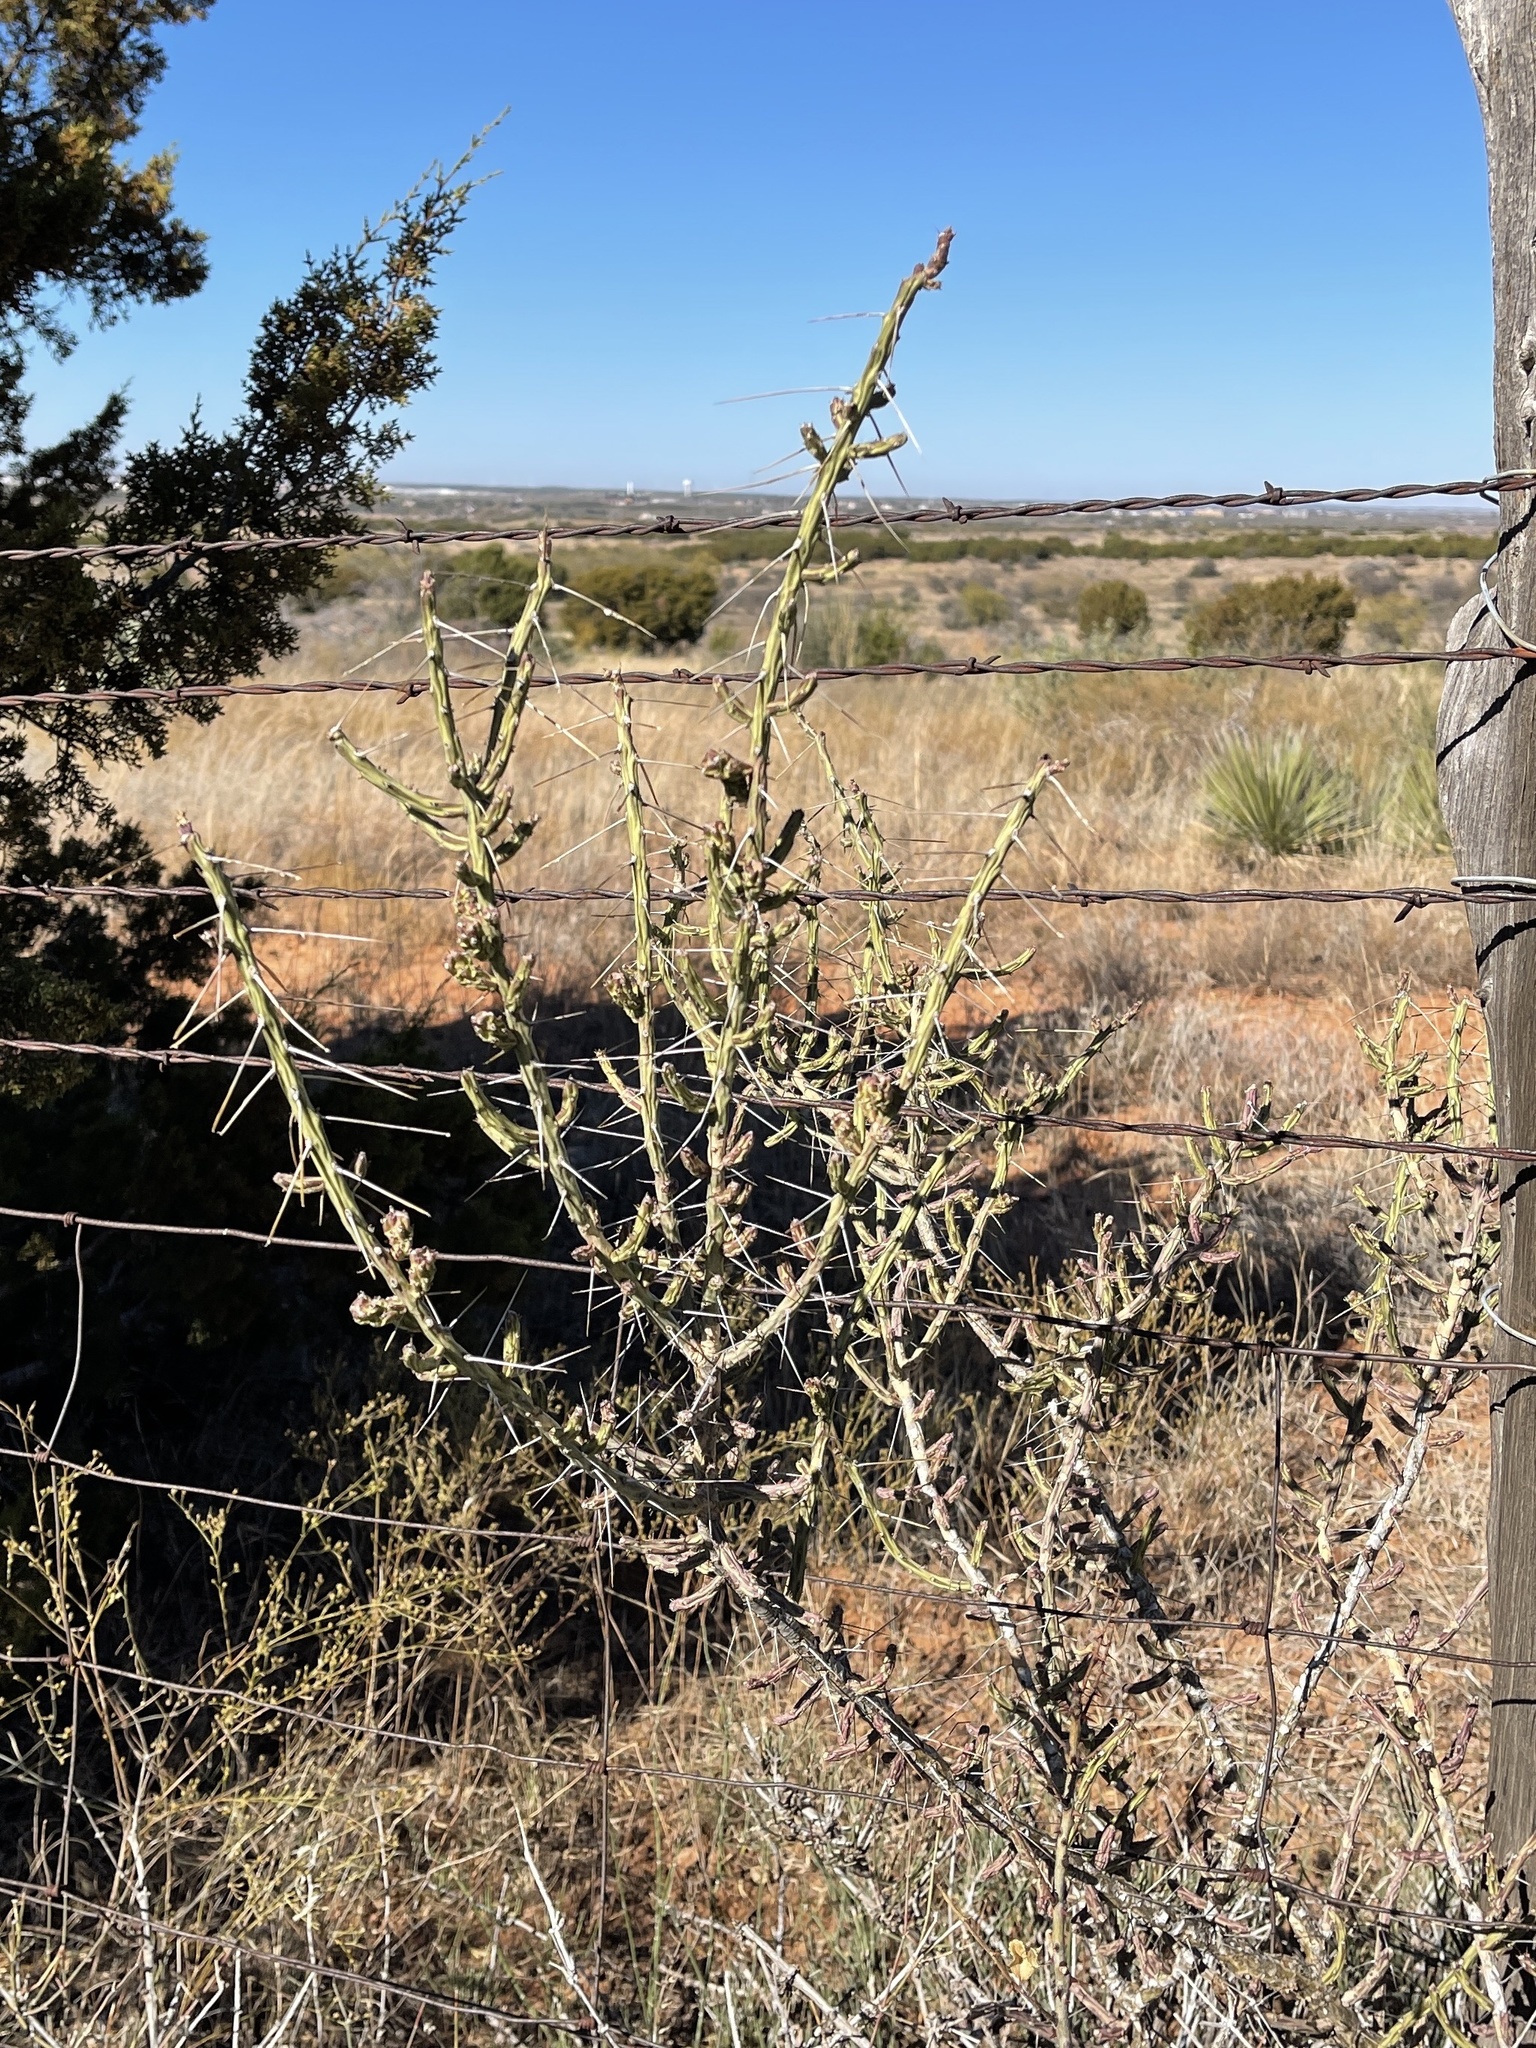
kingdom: Plantae
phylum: Tracheophyta
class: Magnoliopsida
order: Caryophyllales
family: Cactaceae
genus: Cylindropuntia
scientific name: Cylindropuntia leptocaulis
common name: Christmas cactus
